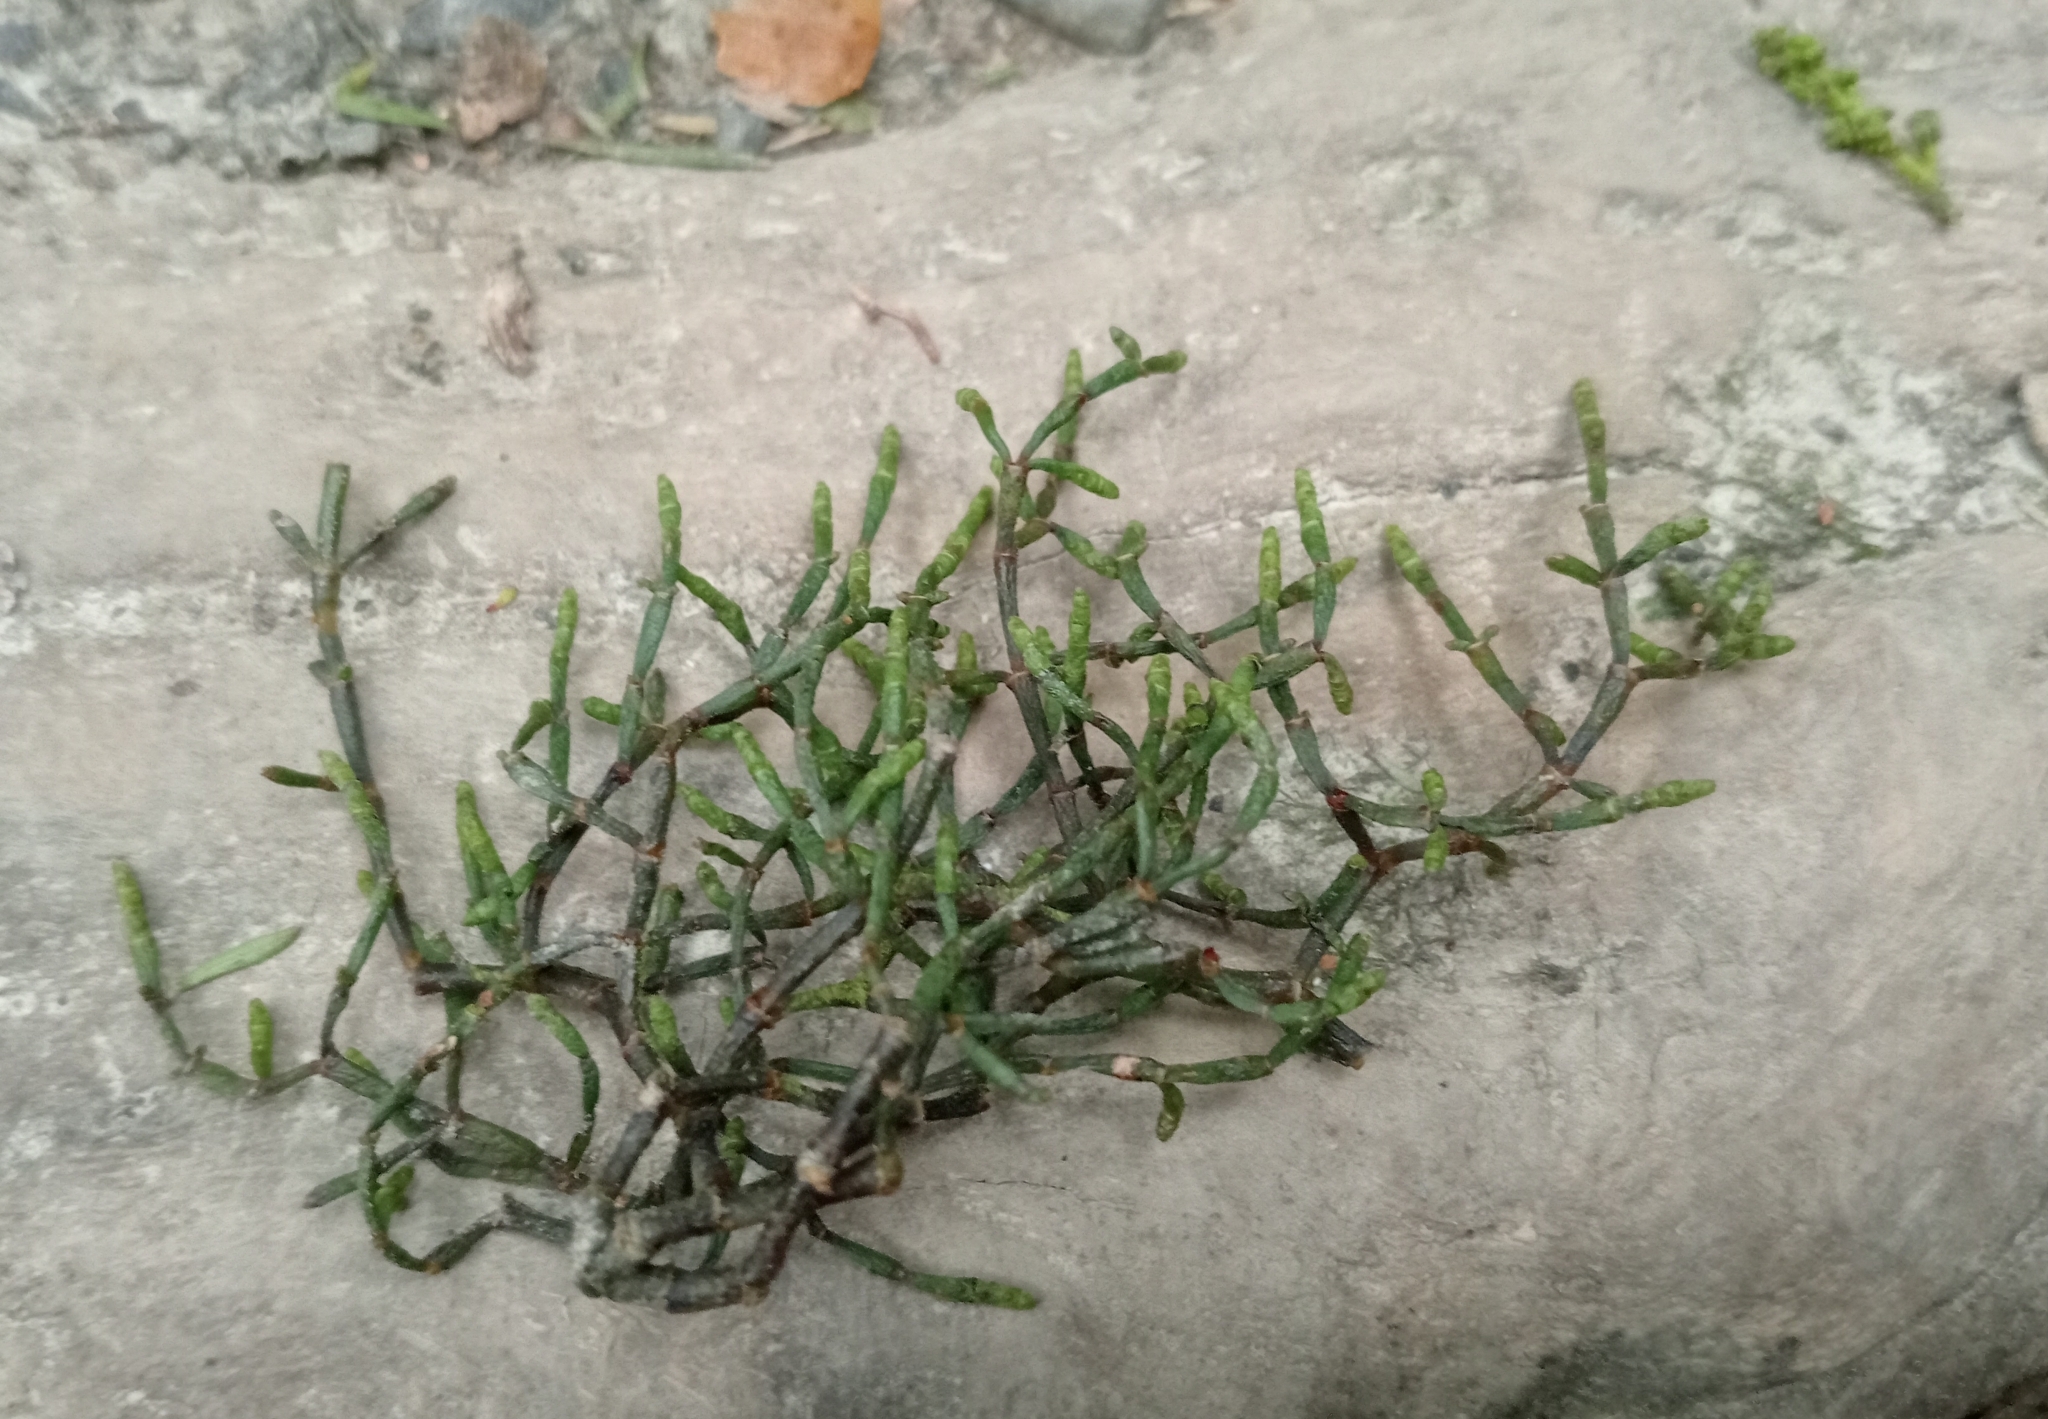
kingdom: Plantae
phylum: Tracheophyta
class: Magnoliopsida
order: Santalales
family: Viscaceae
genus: Korthalsella
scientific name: Korthalsella salicornioides
